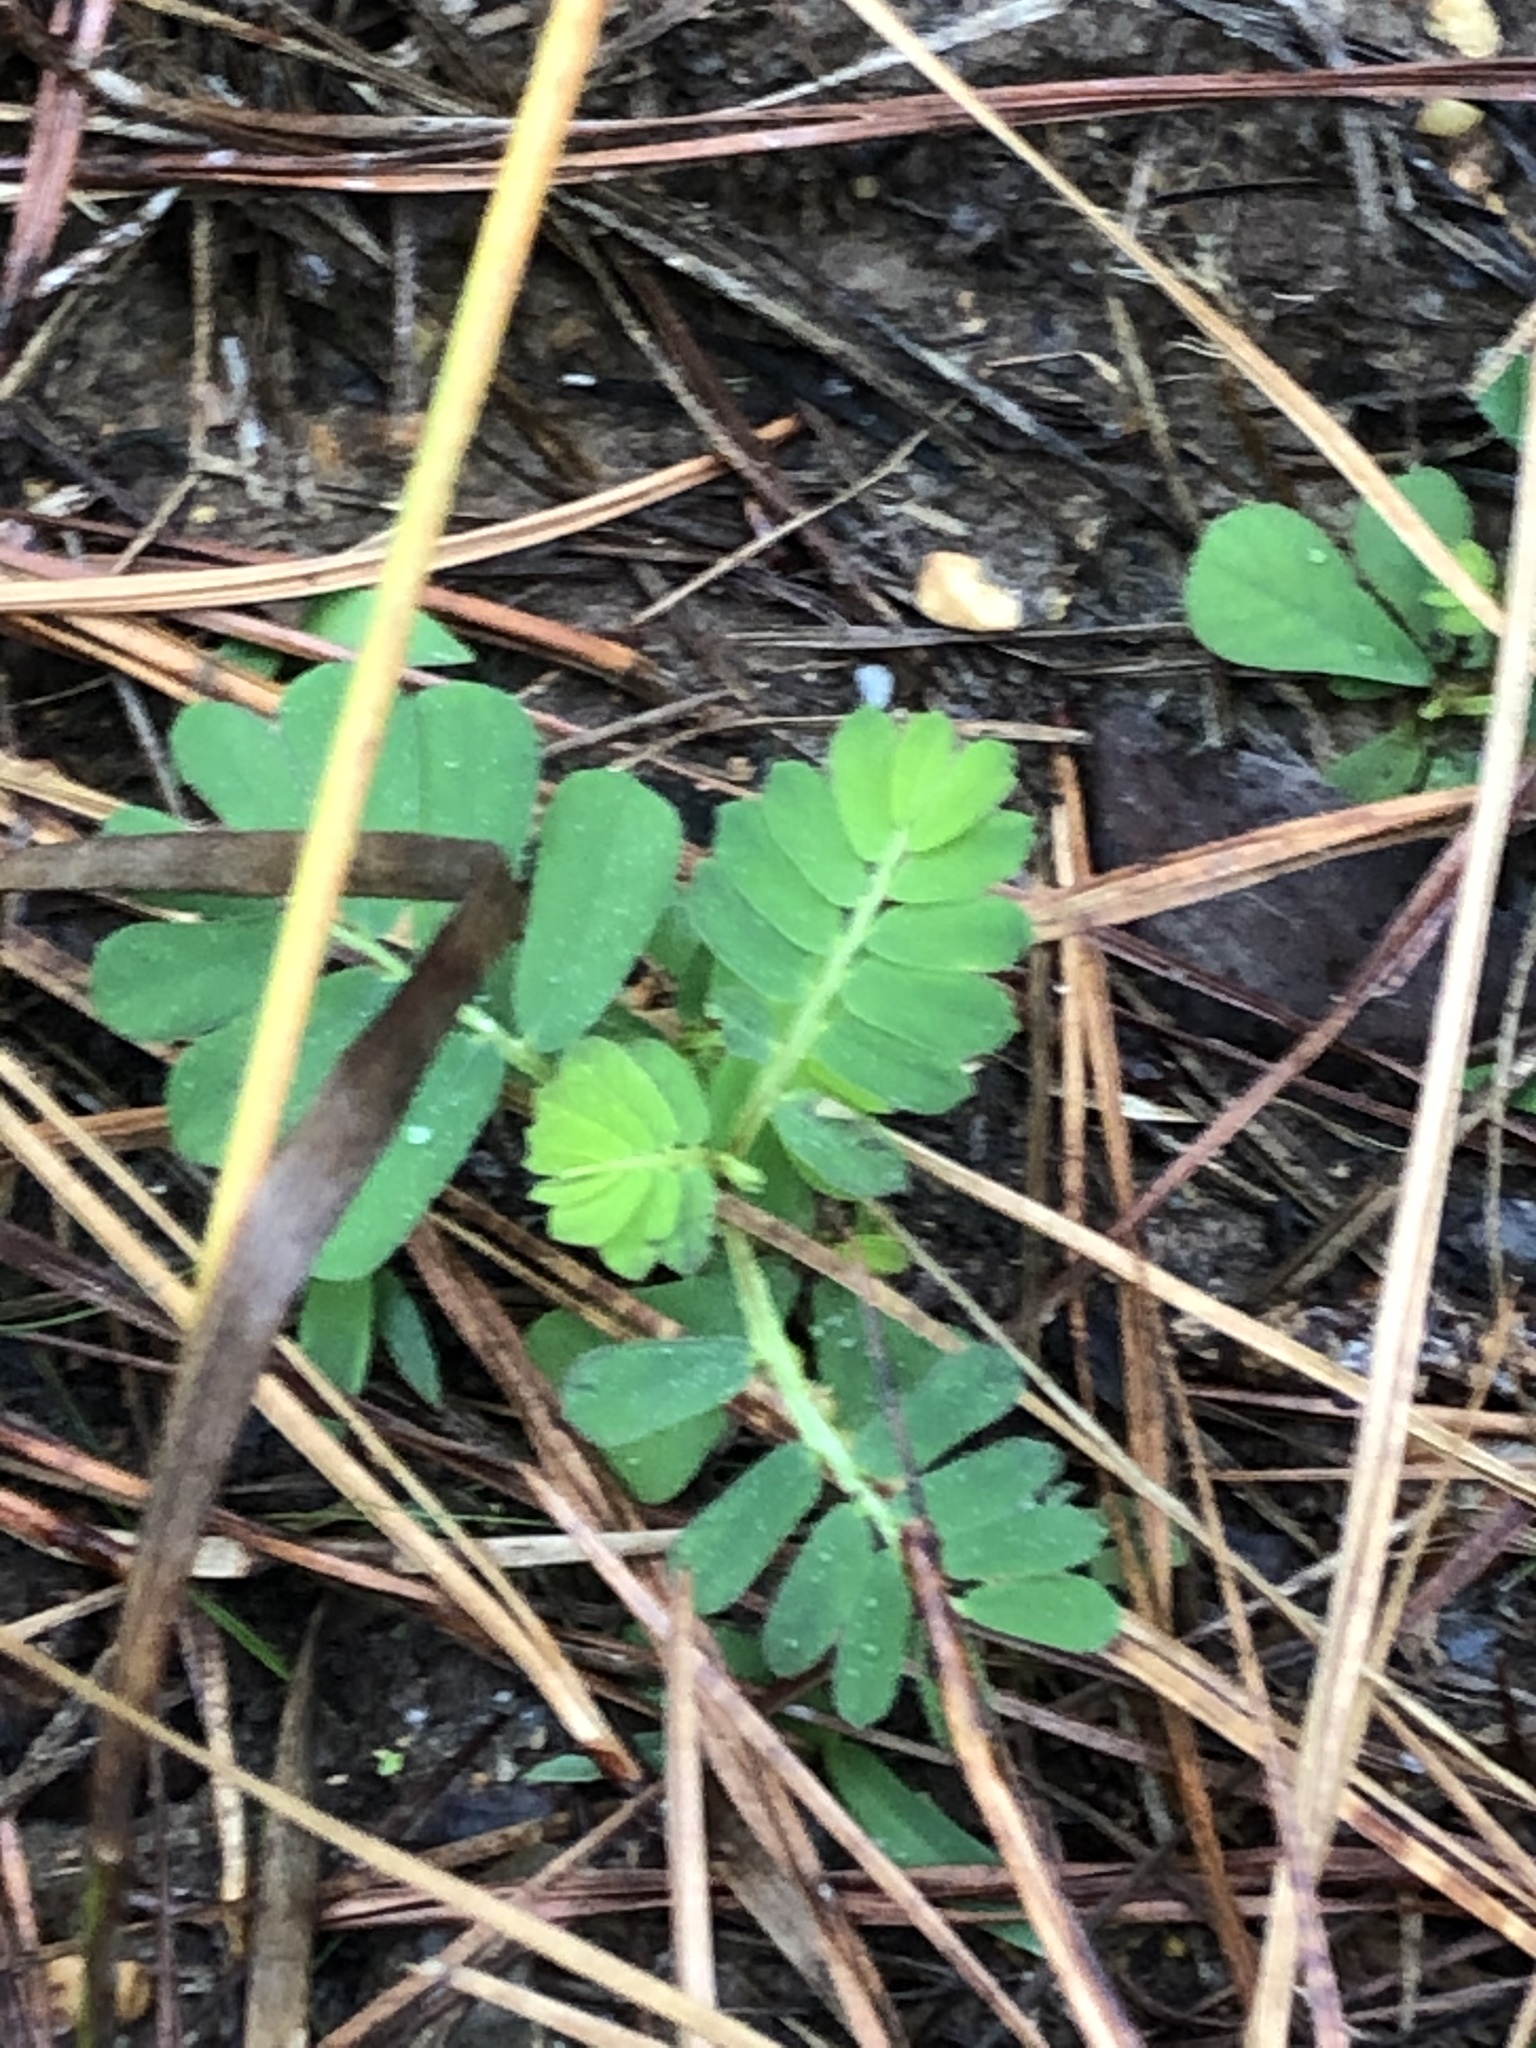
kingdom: Plantae
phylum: Tracheophyta
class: Magnoliopsida
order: Malpighiales
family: Phyllanthaceae
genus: Phyllanthus
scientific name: Phyllanthus urinaria
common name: Chamber bitter
